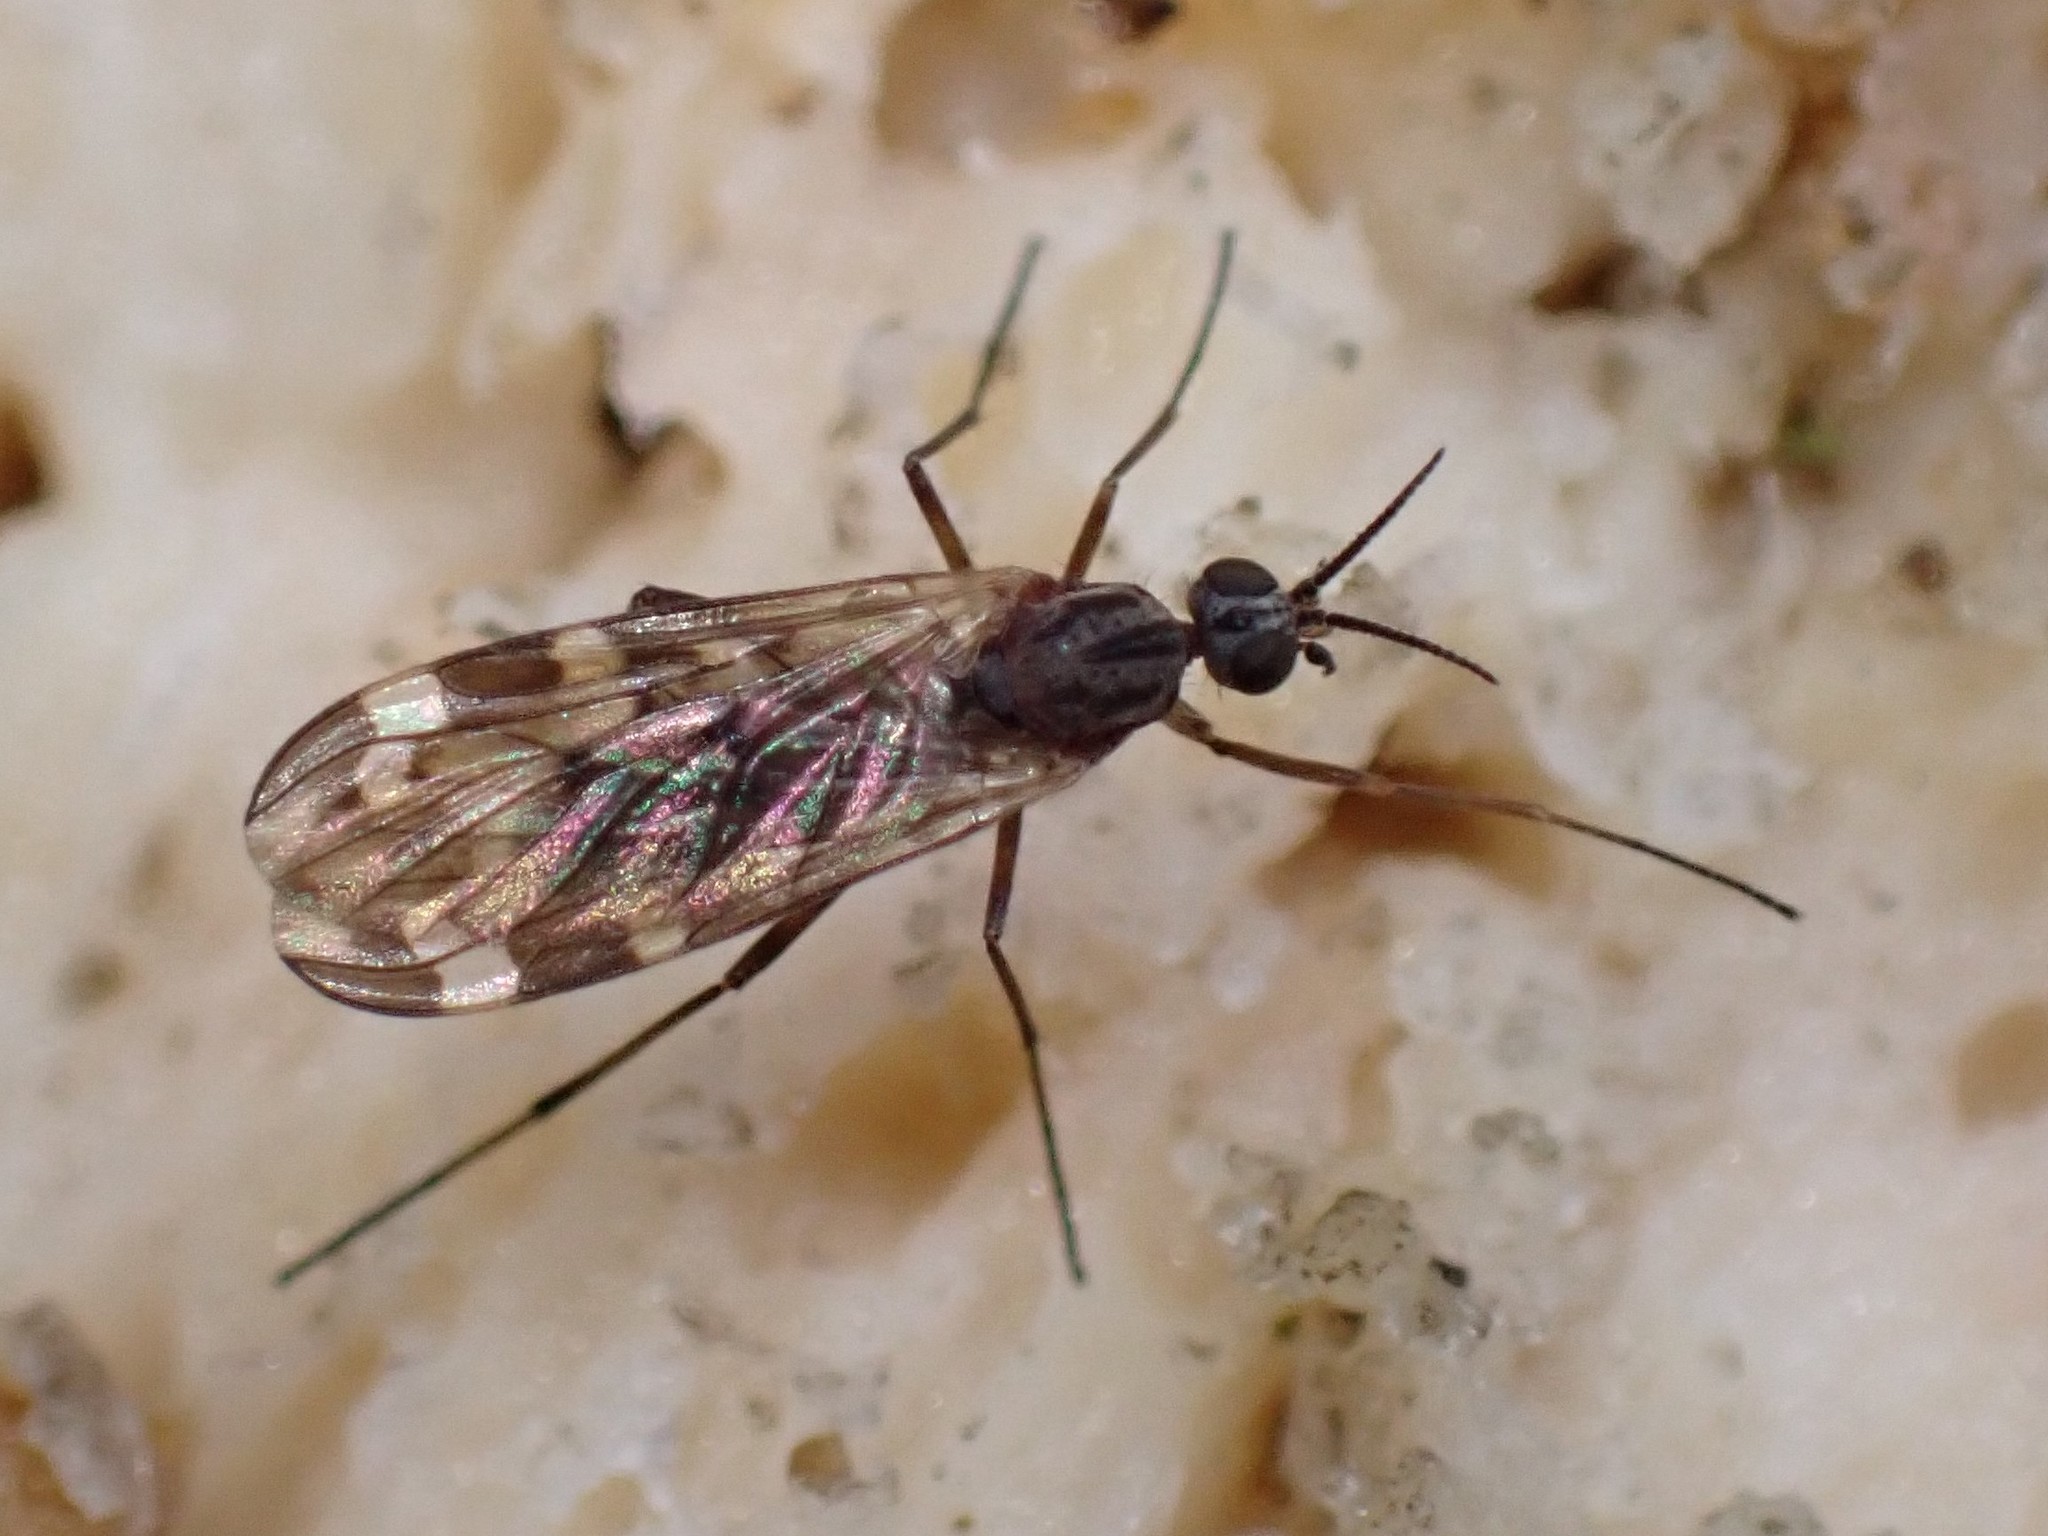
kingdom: Animalia
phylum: Arthropoda
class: Insecta
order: Diptera
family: Anisopodidae
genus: Sylvicola
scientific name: Sylvicola alternata
